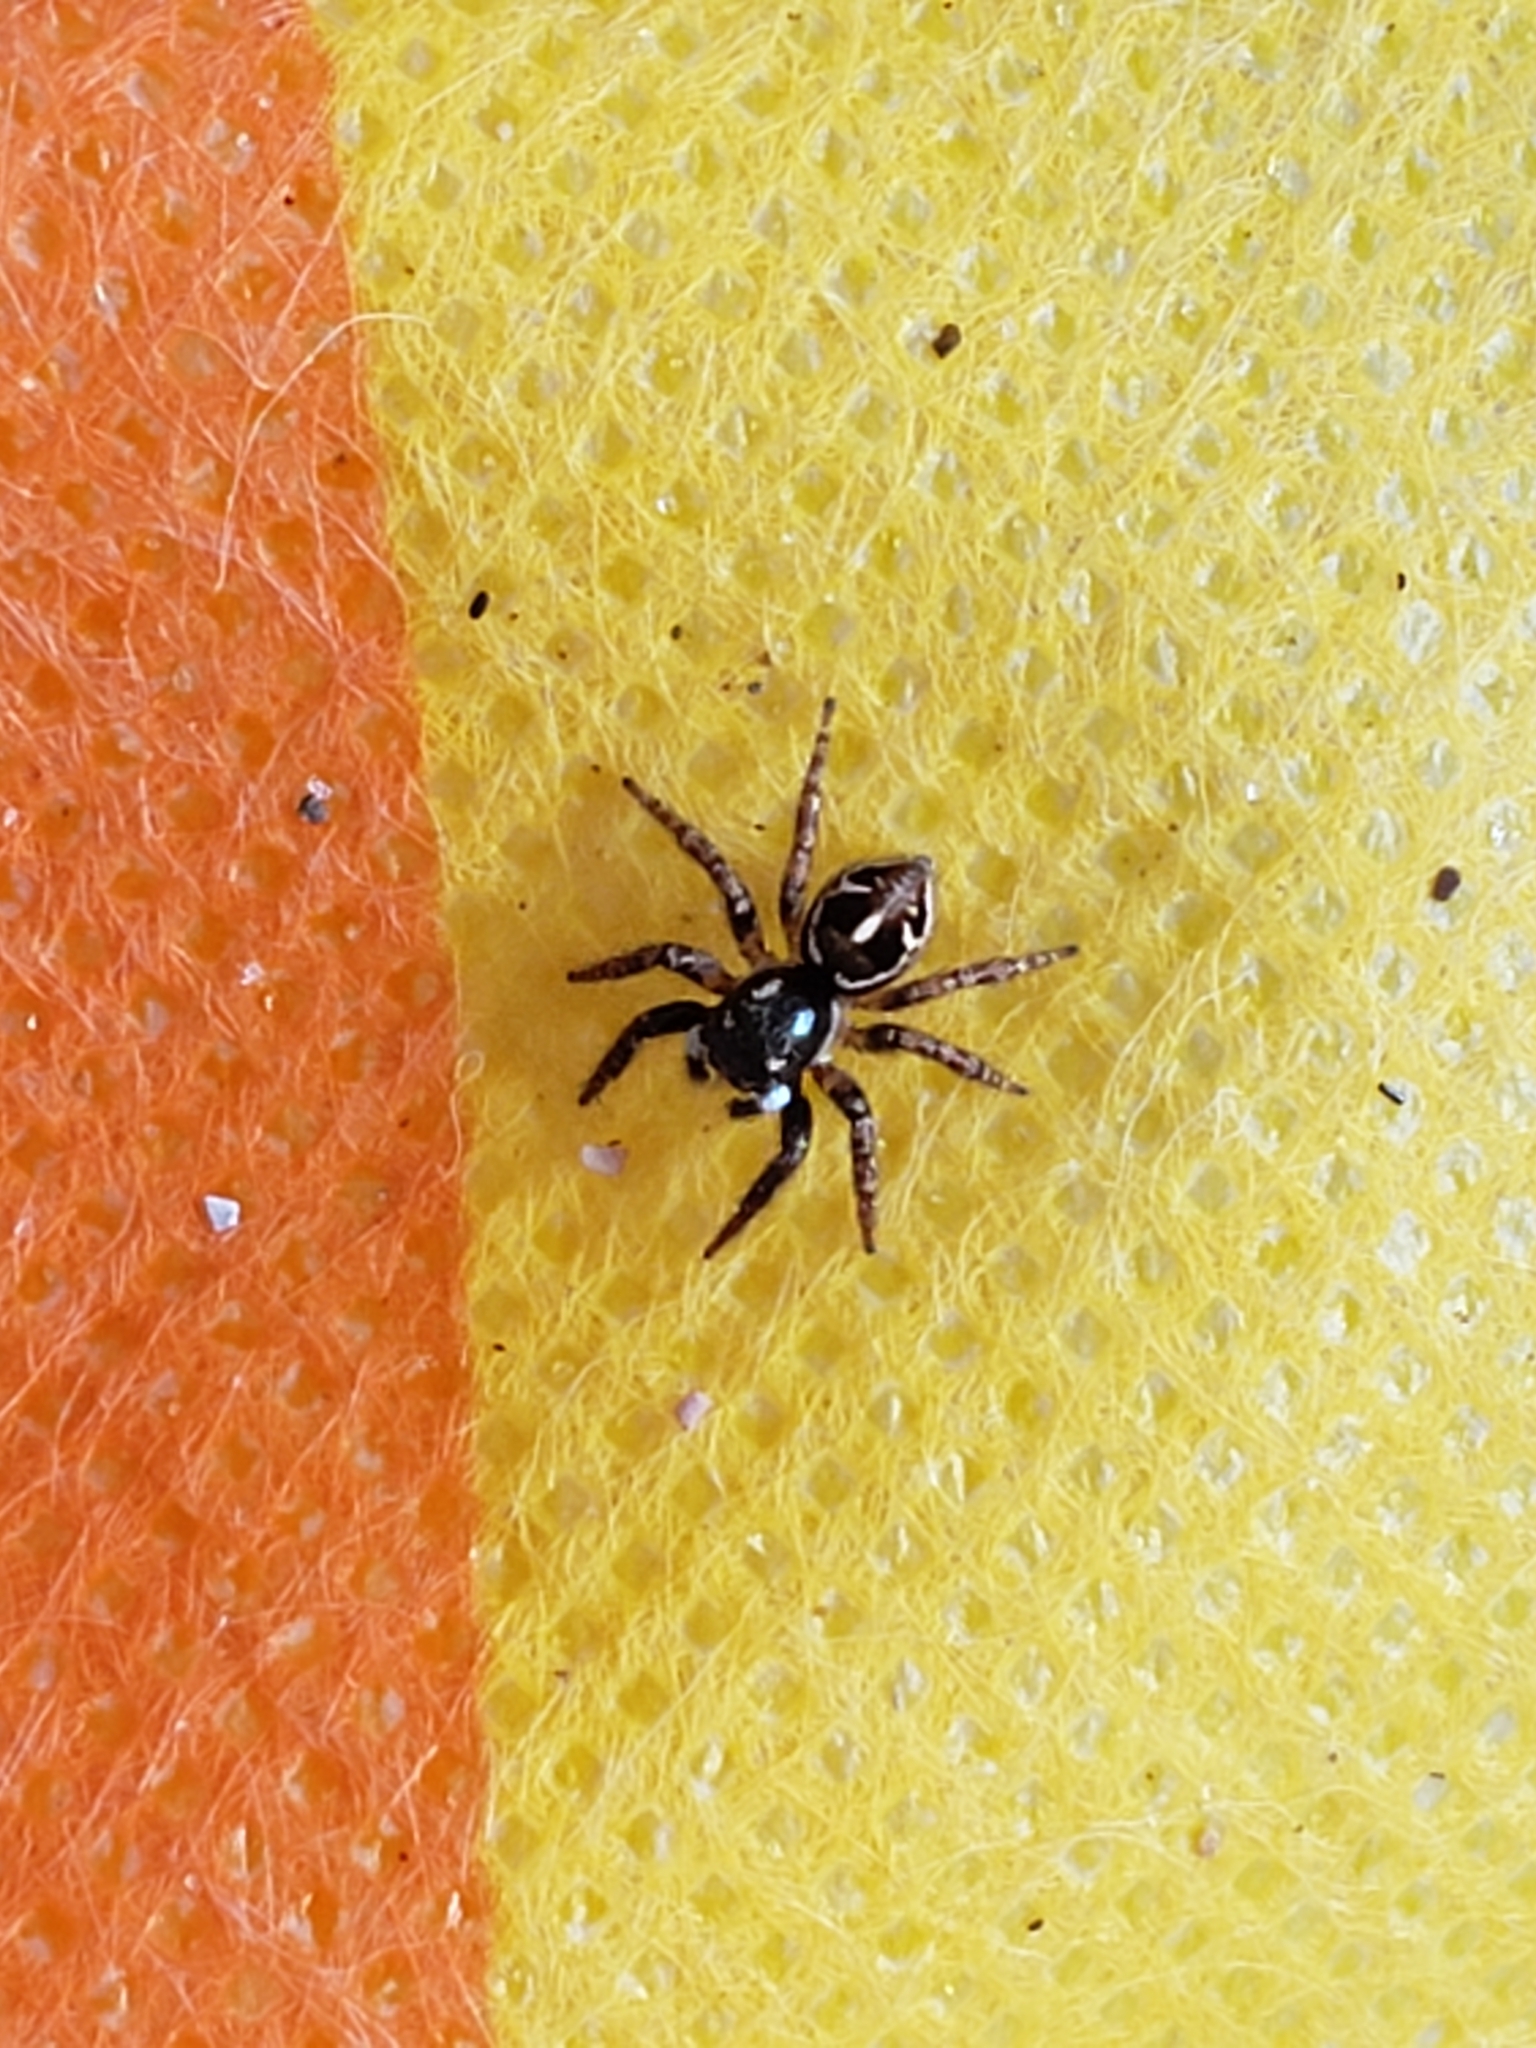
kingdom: Animalia
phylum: Arthropoda
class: Arachnida
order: Araneae
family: Salticidae
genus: Anasaitis
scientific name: Anasaitis canosa
